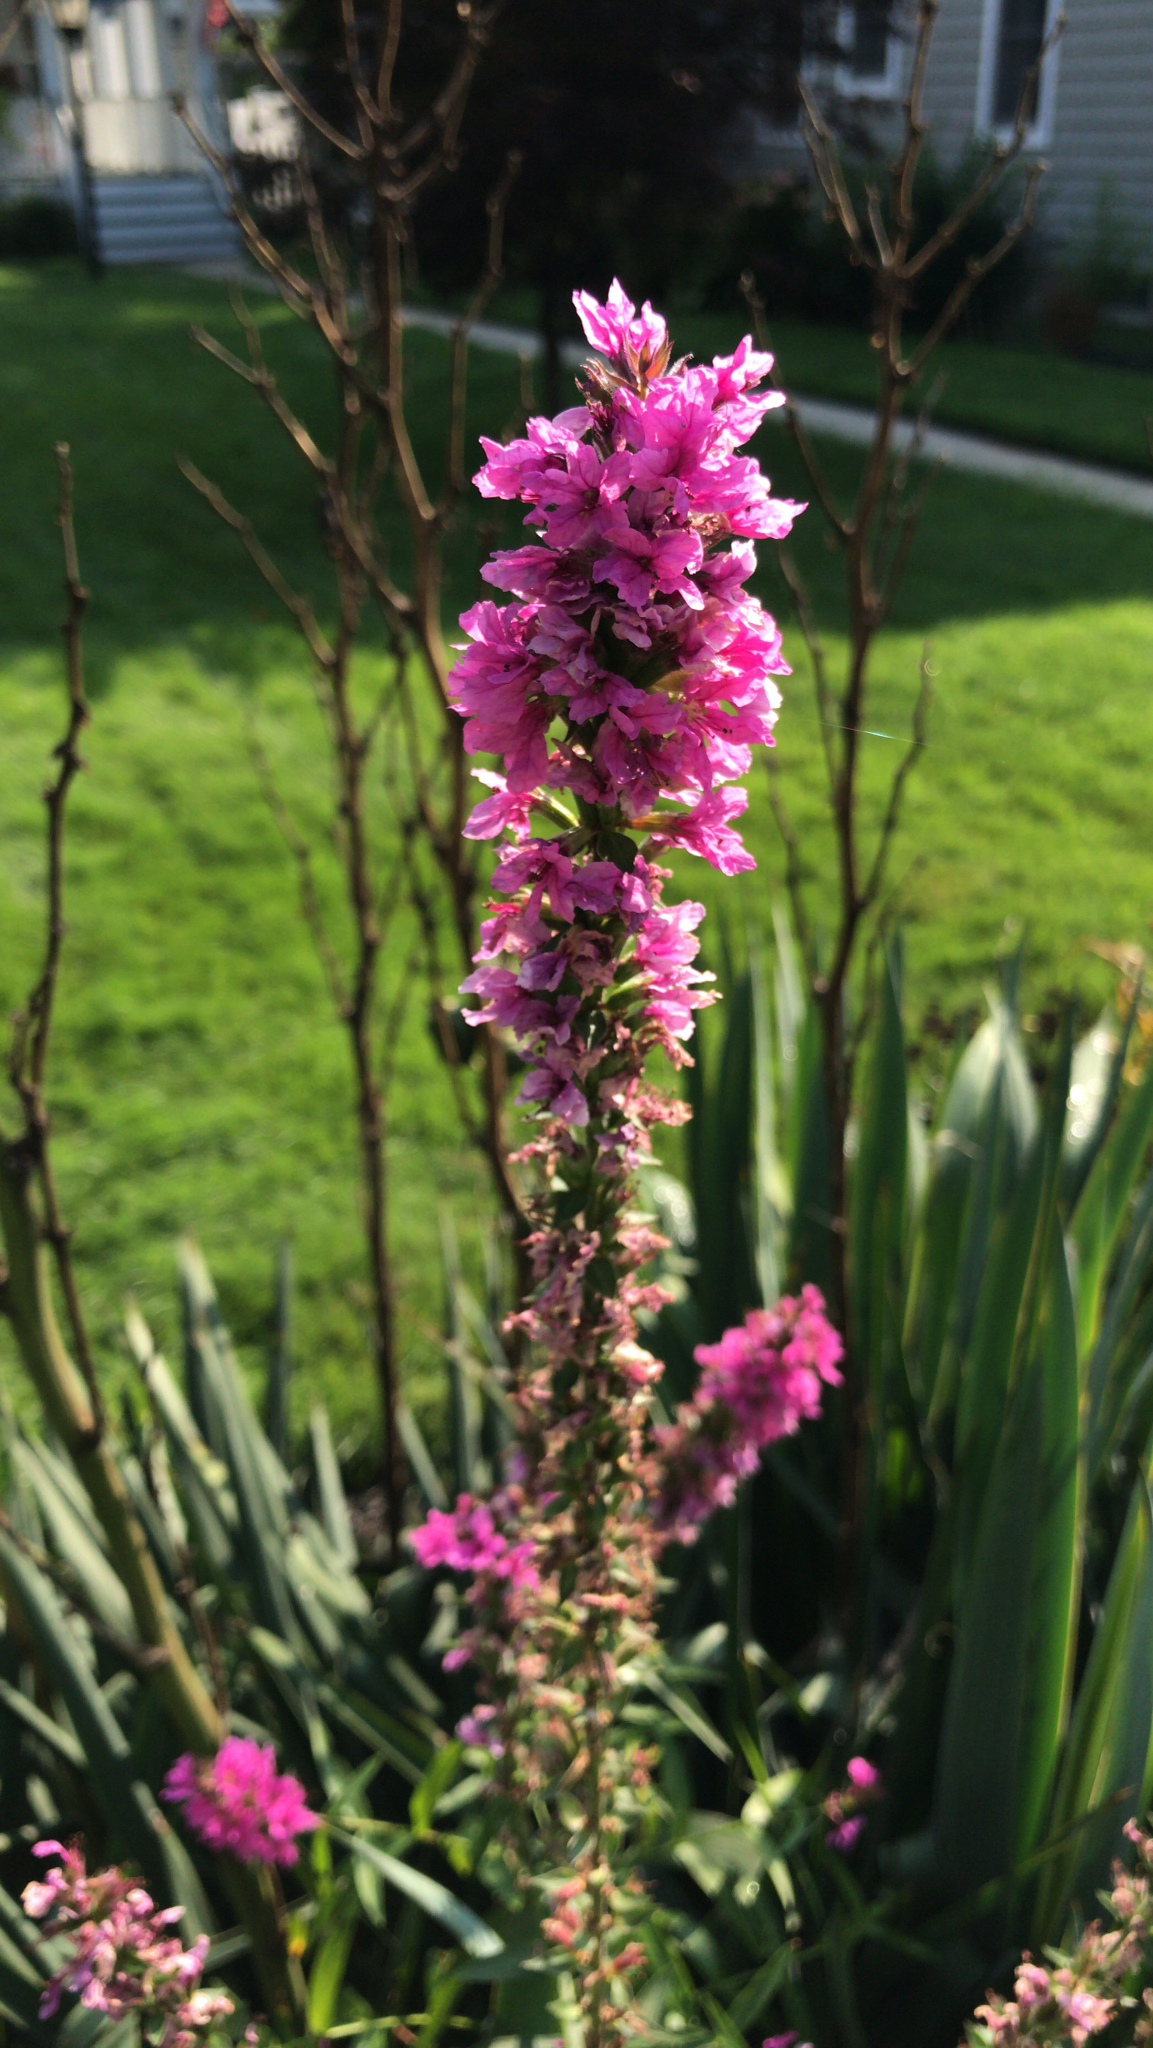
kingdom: Plantae
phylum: Tracheophyta
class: Magnoliopsida
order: Myrtales
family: Lythraceae
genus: Lythrum
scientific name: Lythrum salicaria
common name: Purple loosestrife
